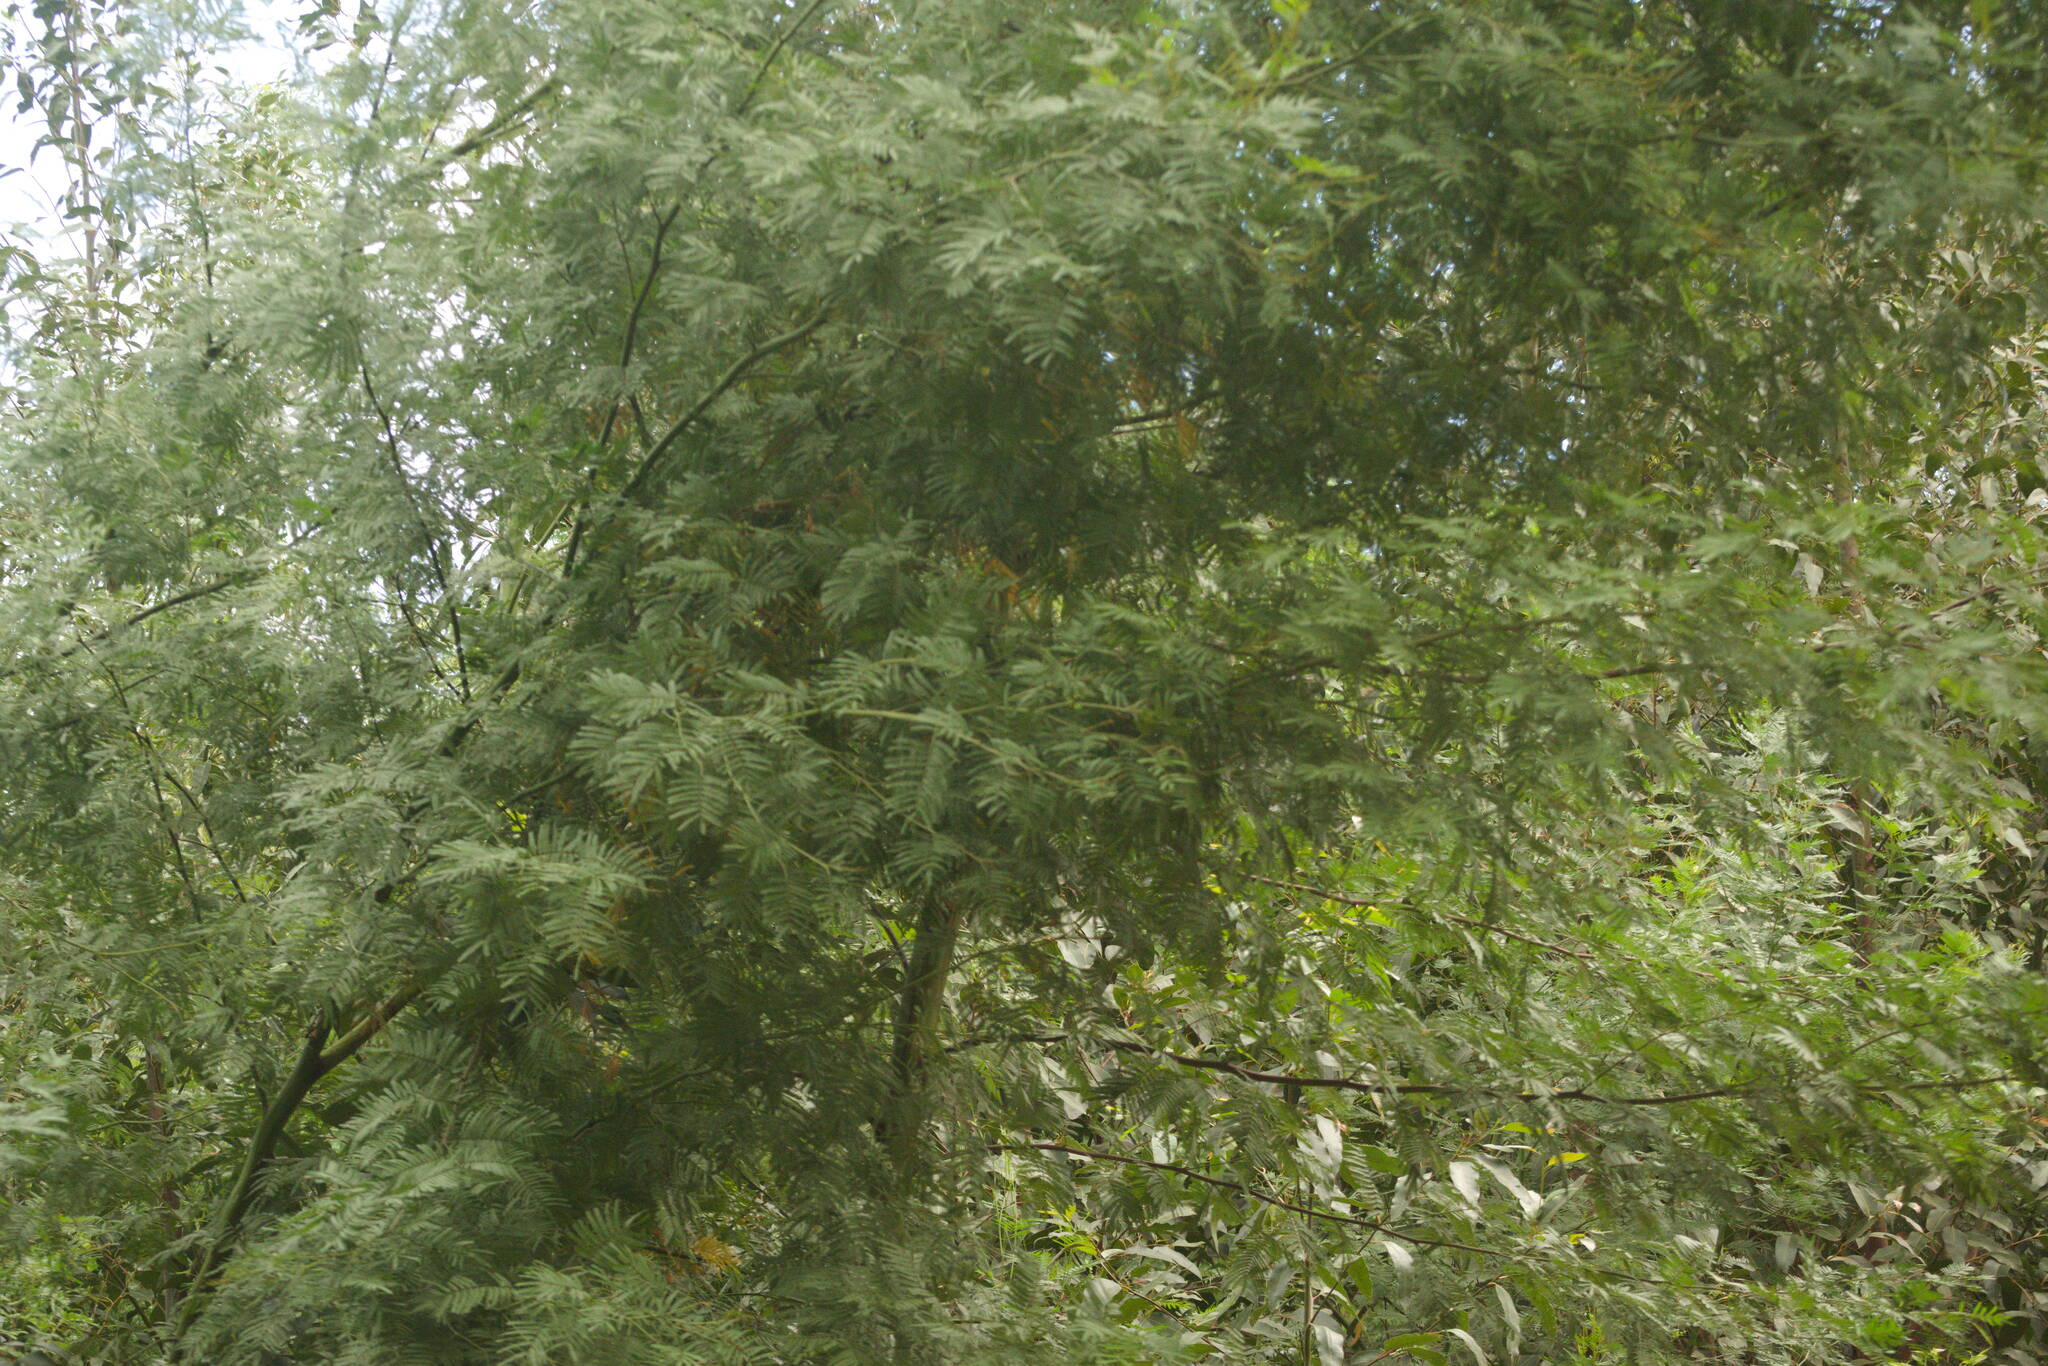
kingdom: Plantae
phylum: Tracheophyta
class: Magnoliopsida
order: Fabales
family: Fabaceae
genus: Acacia
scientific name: Acacia mearnsii
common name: Black wattle
